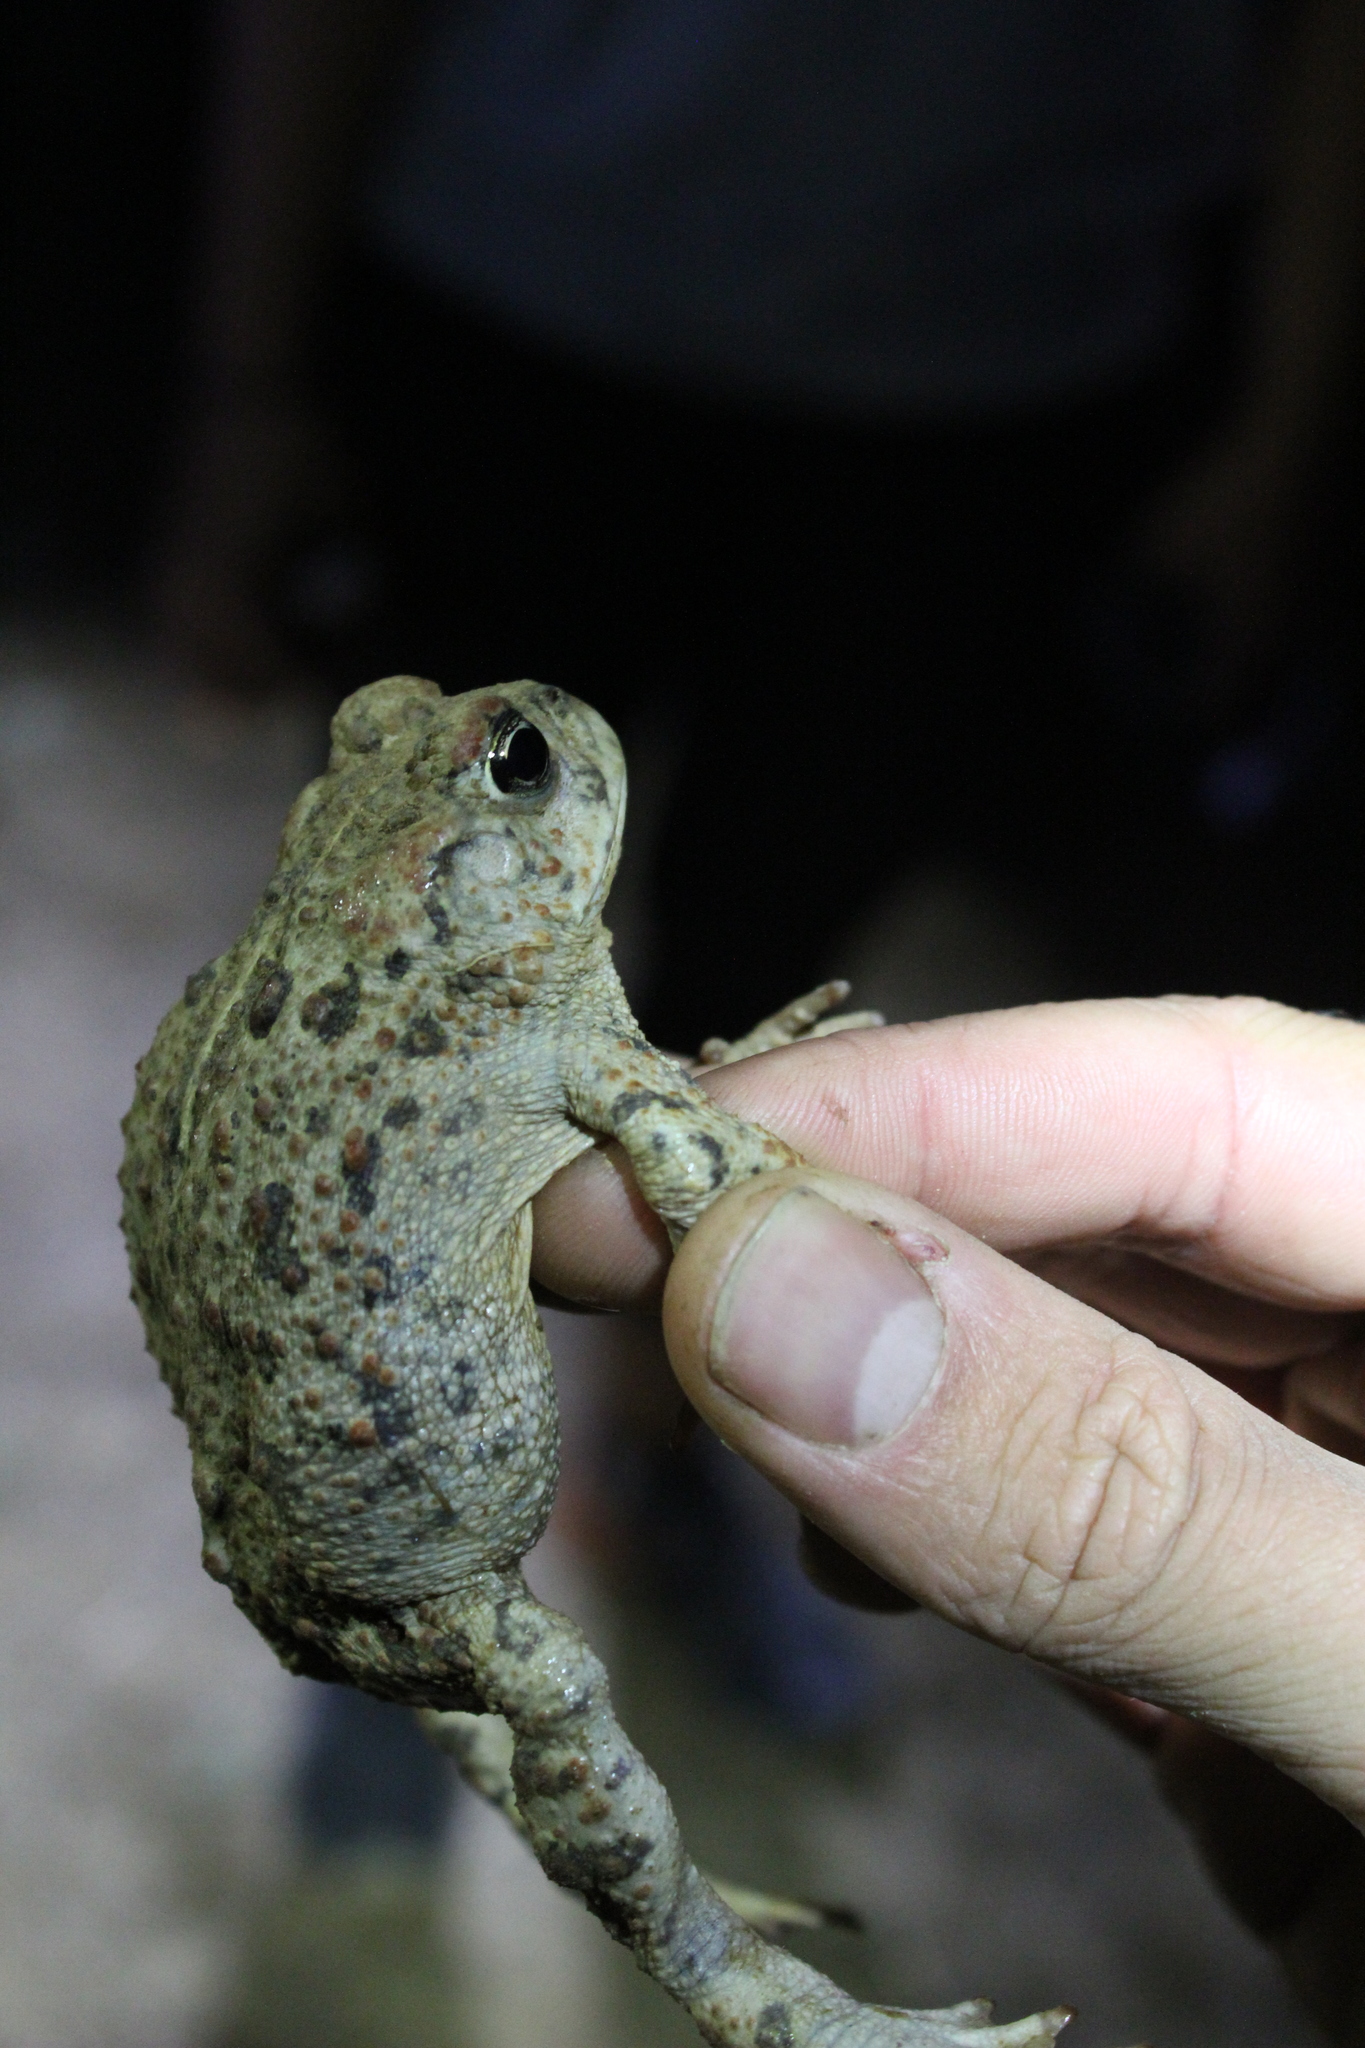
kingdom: Animalia
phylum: Chordata
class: Amphibia
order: Anura
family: Bufonidae
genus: Anaxyrus
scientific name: Anaxyrus boreas
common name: Western toad
